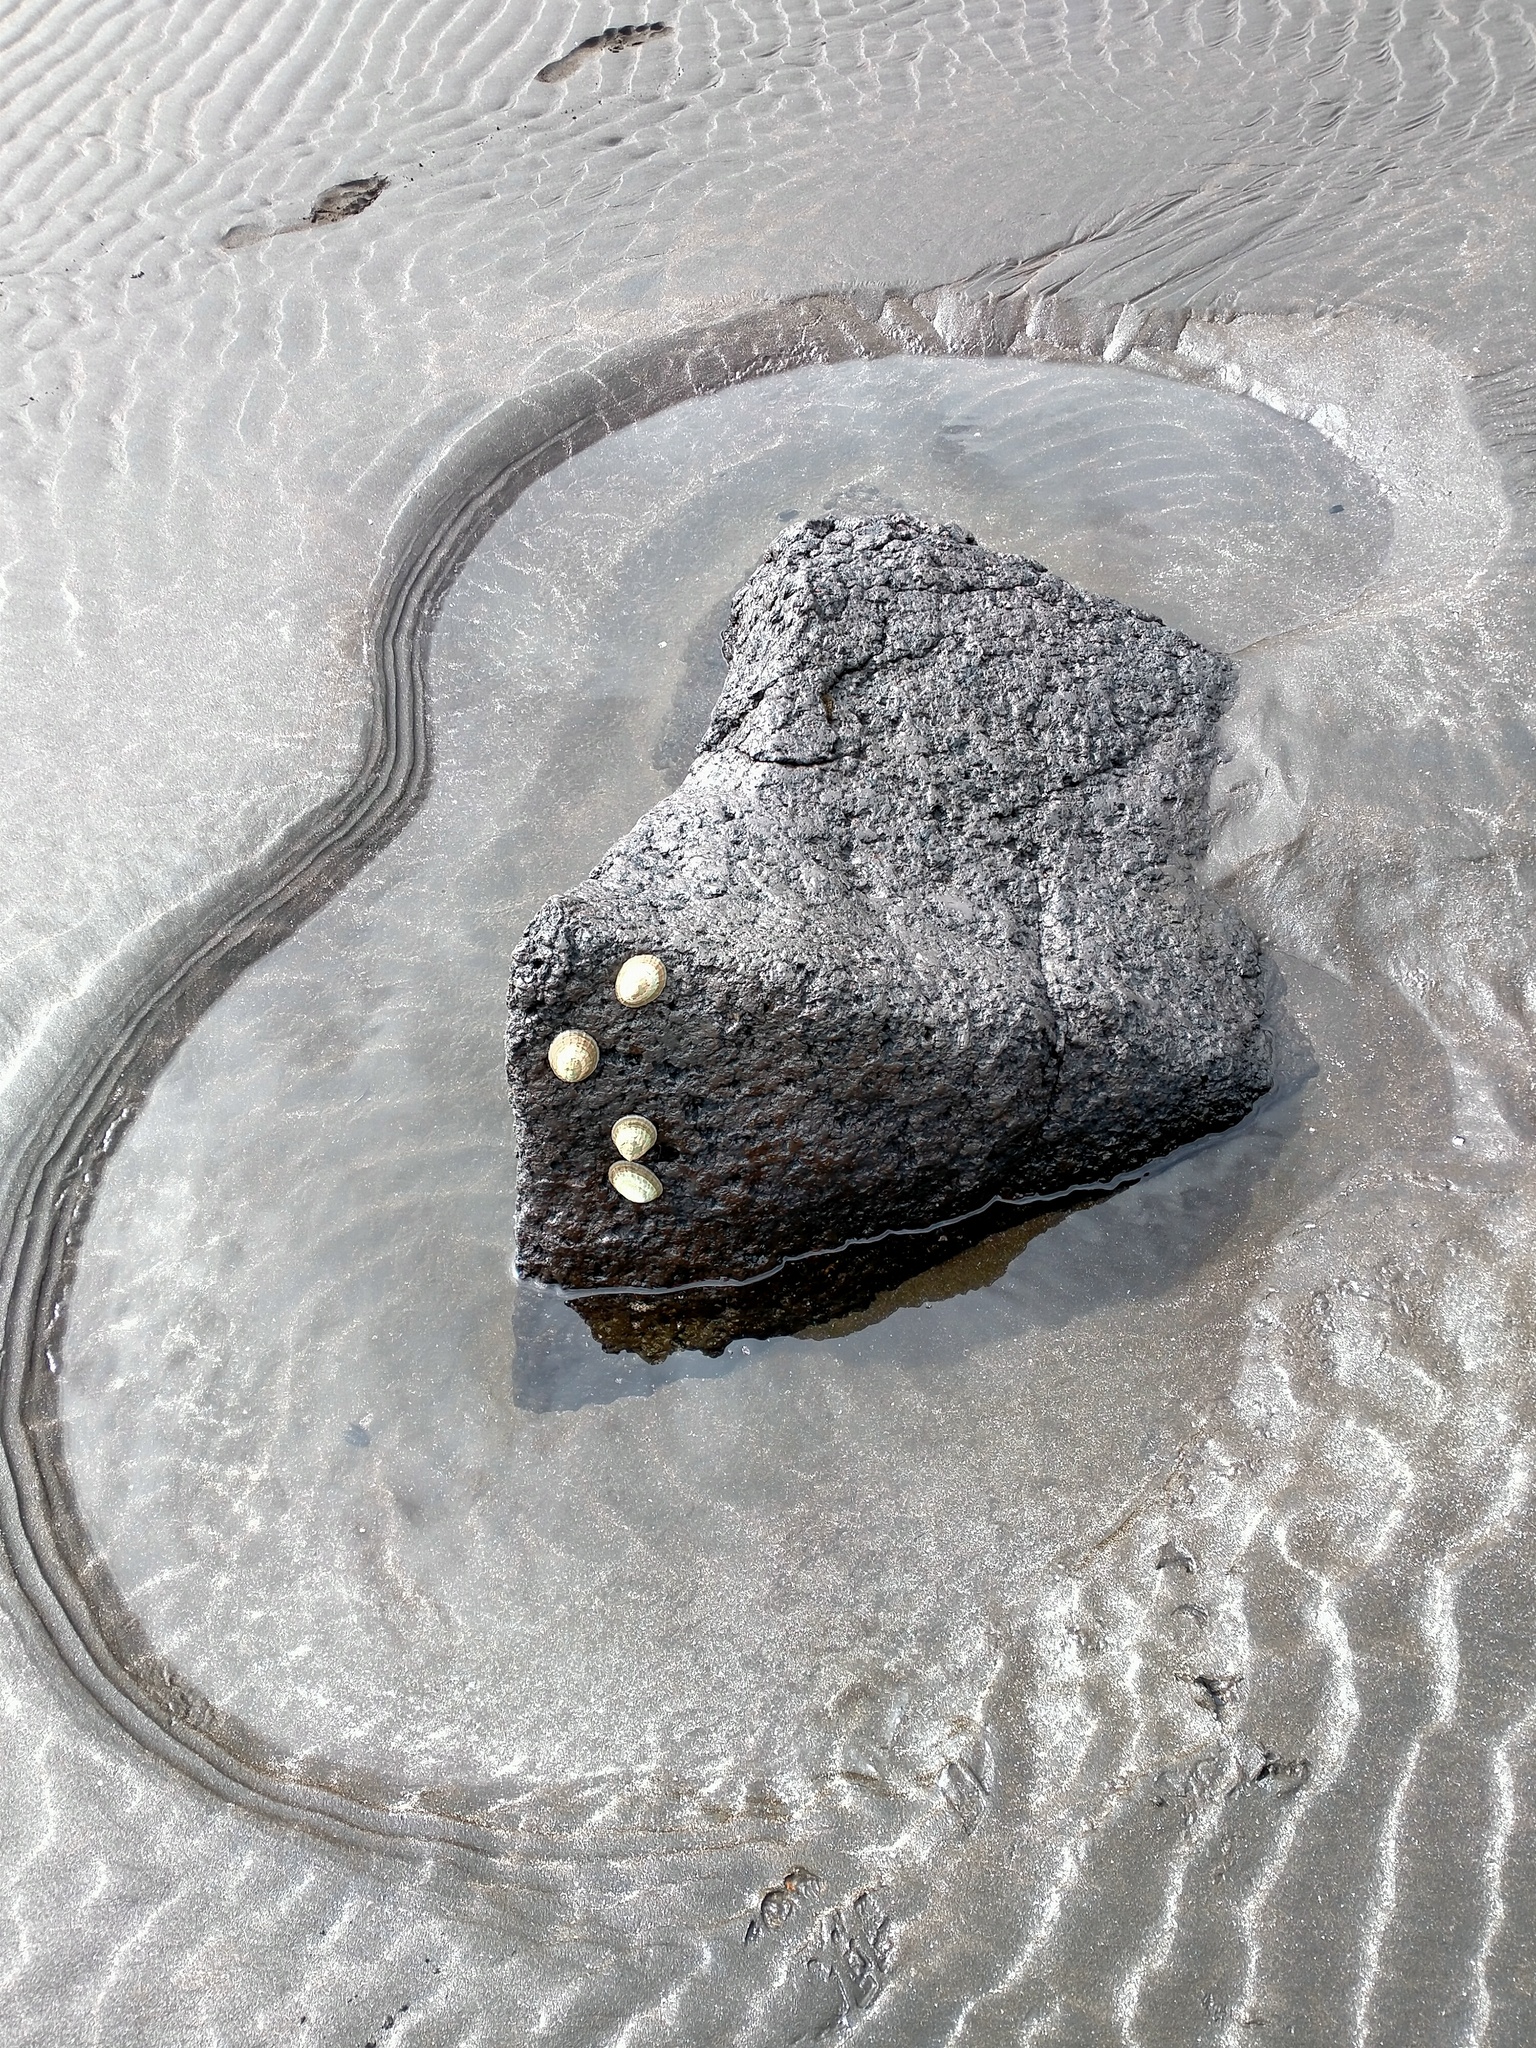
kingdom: Animalia
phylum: Mollusca
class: Gastropoda
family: Nacellidae
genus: Cellana
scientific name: Cellana strigilis
